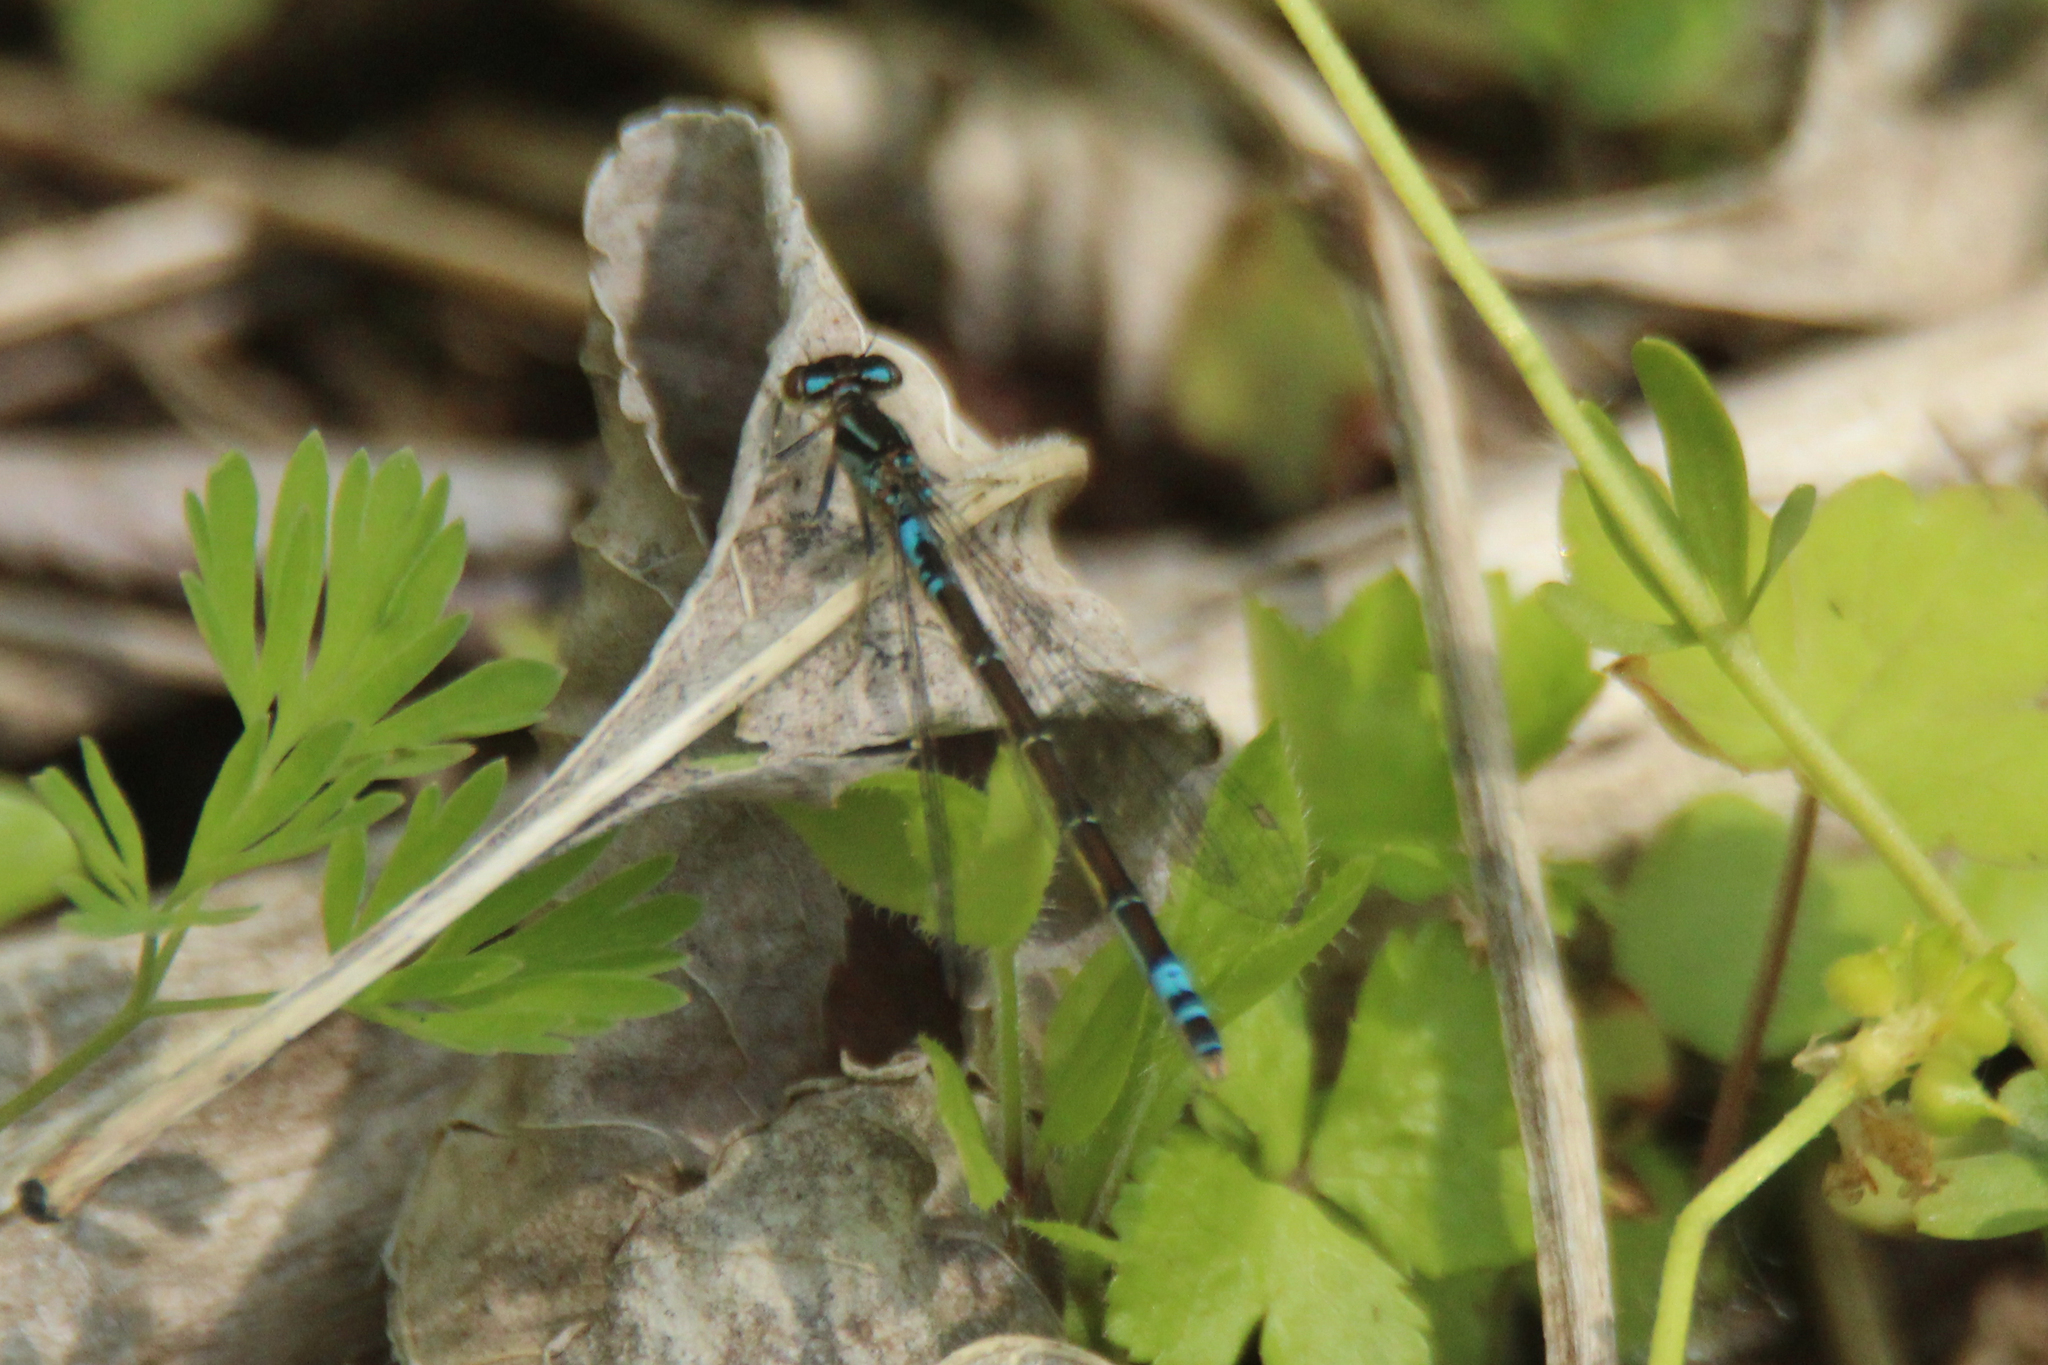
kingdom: Animalia
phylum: Arthropoda
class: Insecta
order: Odonata
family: Coenagrionidae
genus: Coenagrion
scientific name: Coenagrion glaciale
